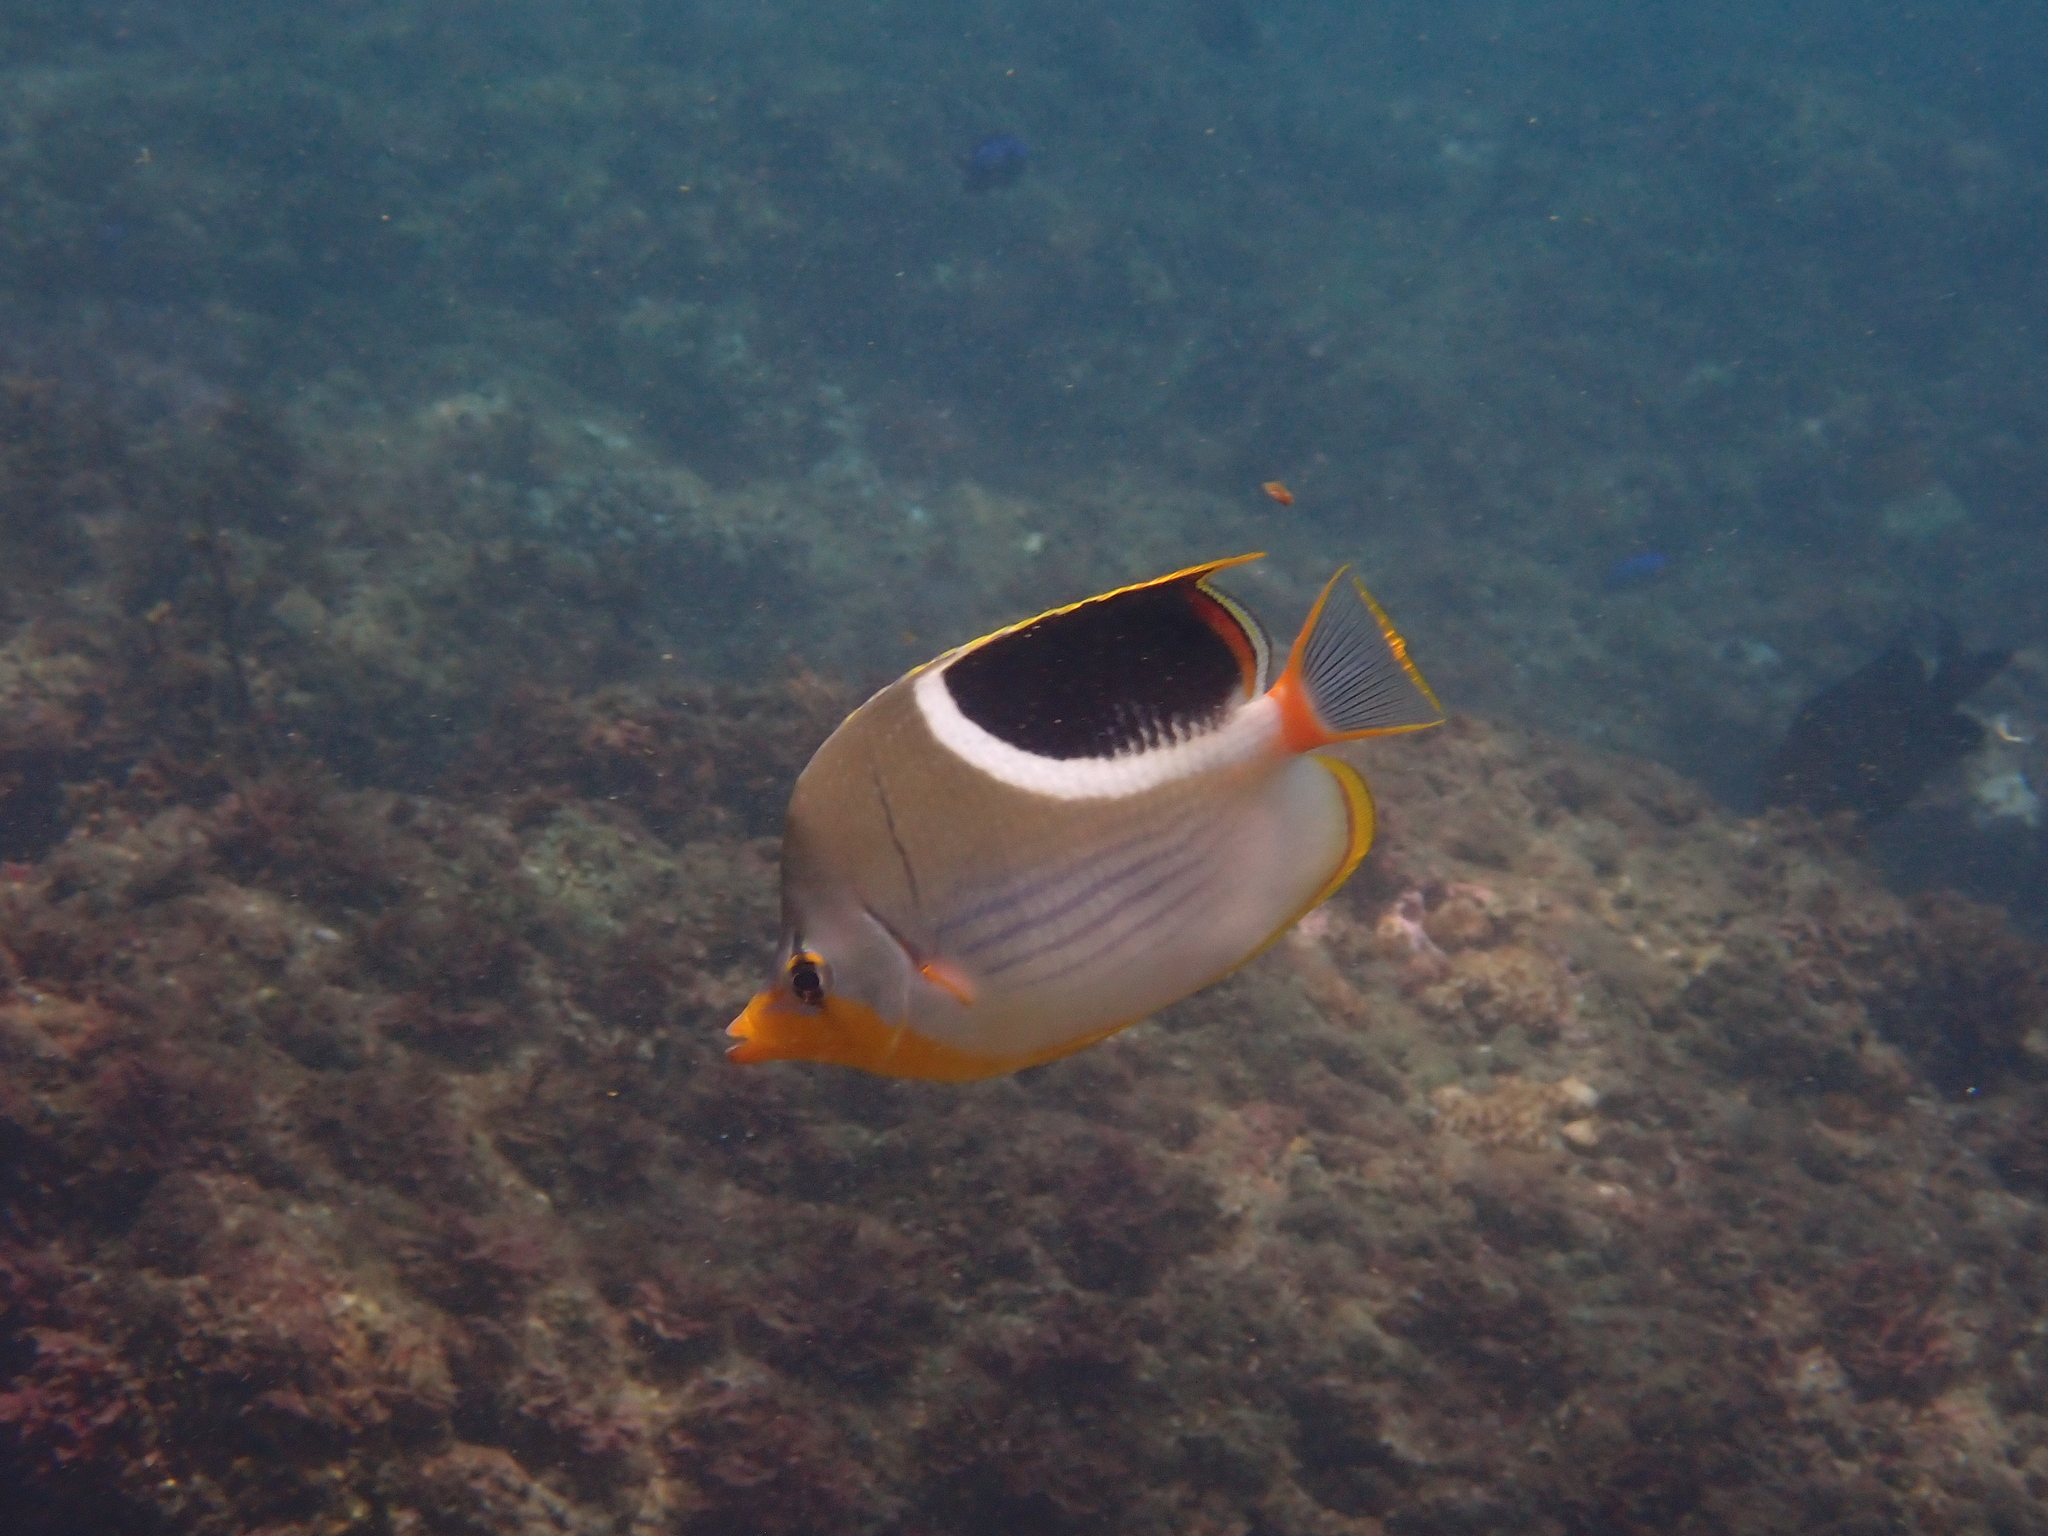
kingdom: Animalia
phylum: Chordata
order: Perciformes
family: Chaetodontidae
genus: Chaetodon
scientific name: Chaetodon ephippium
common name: Saddled butterflyfish
